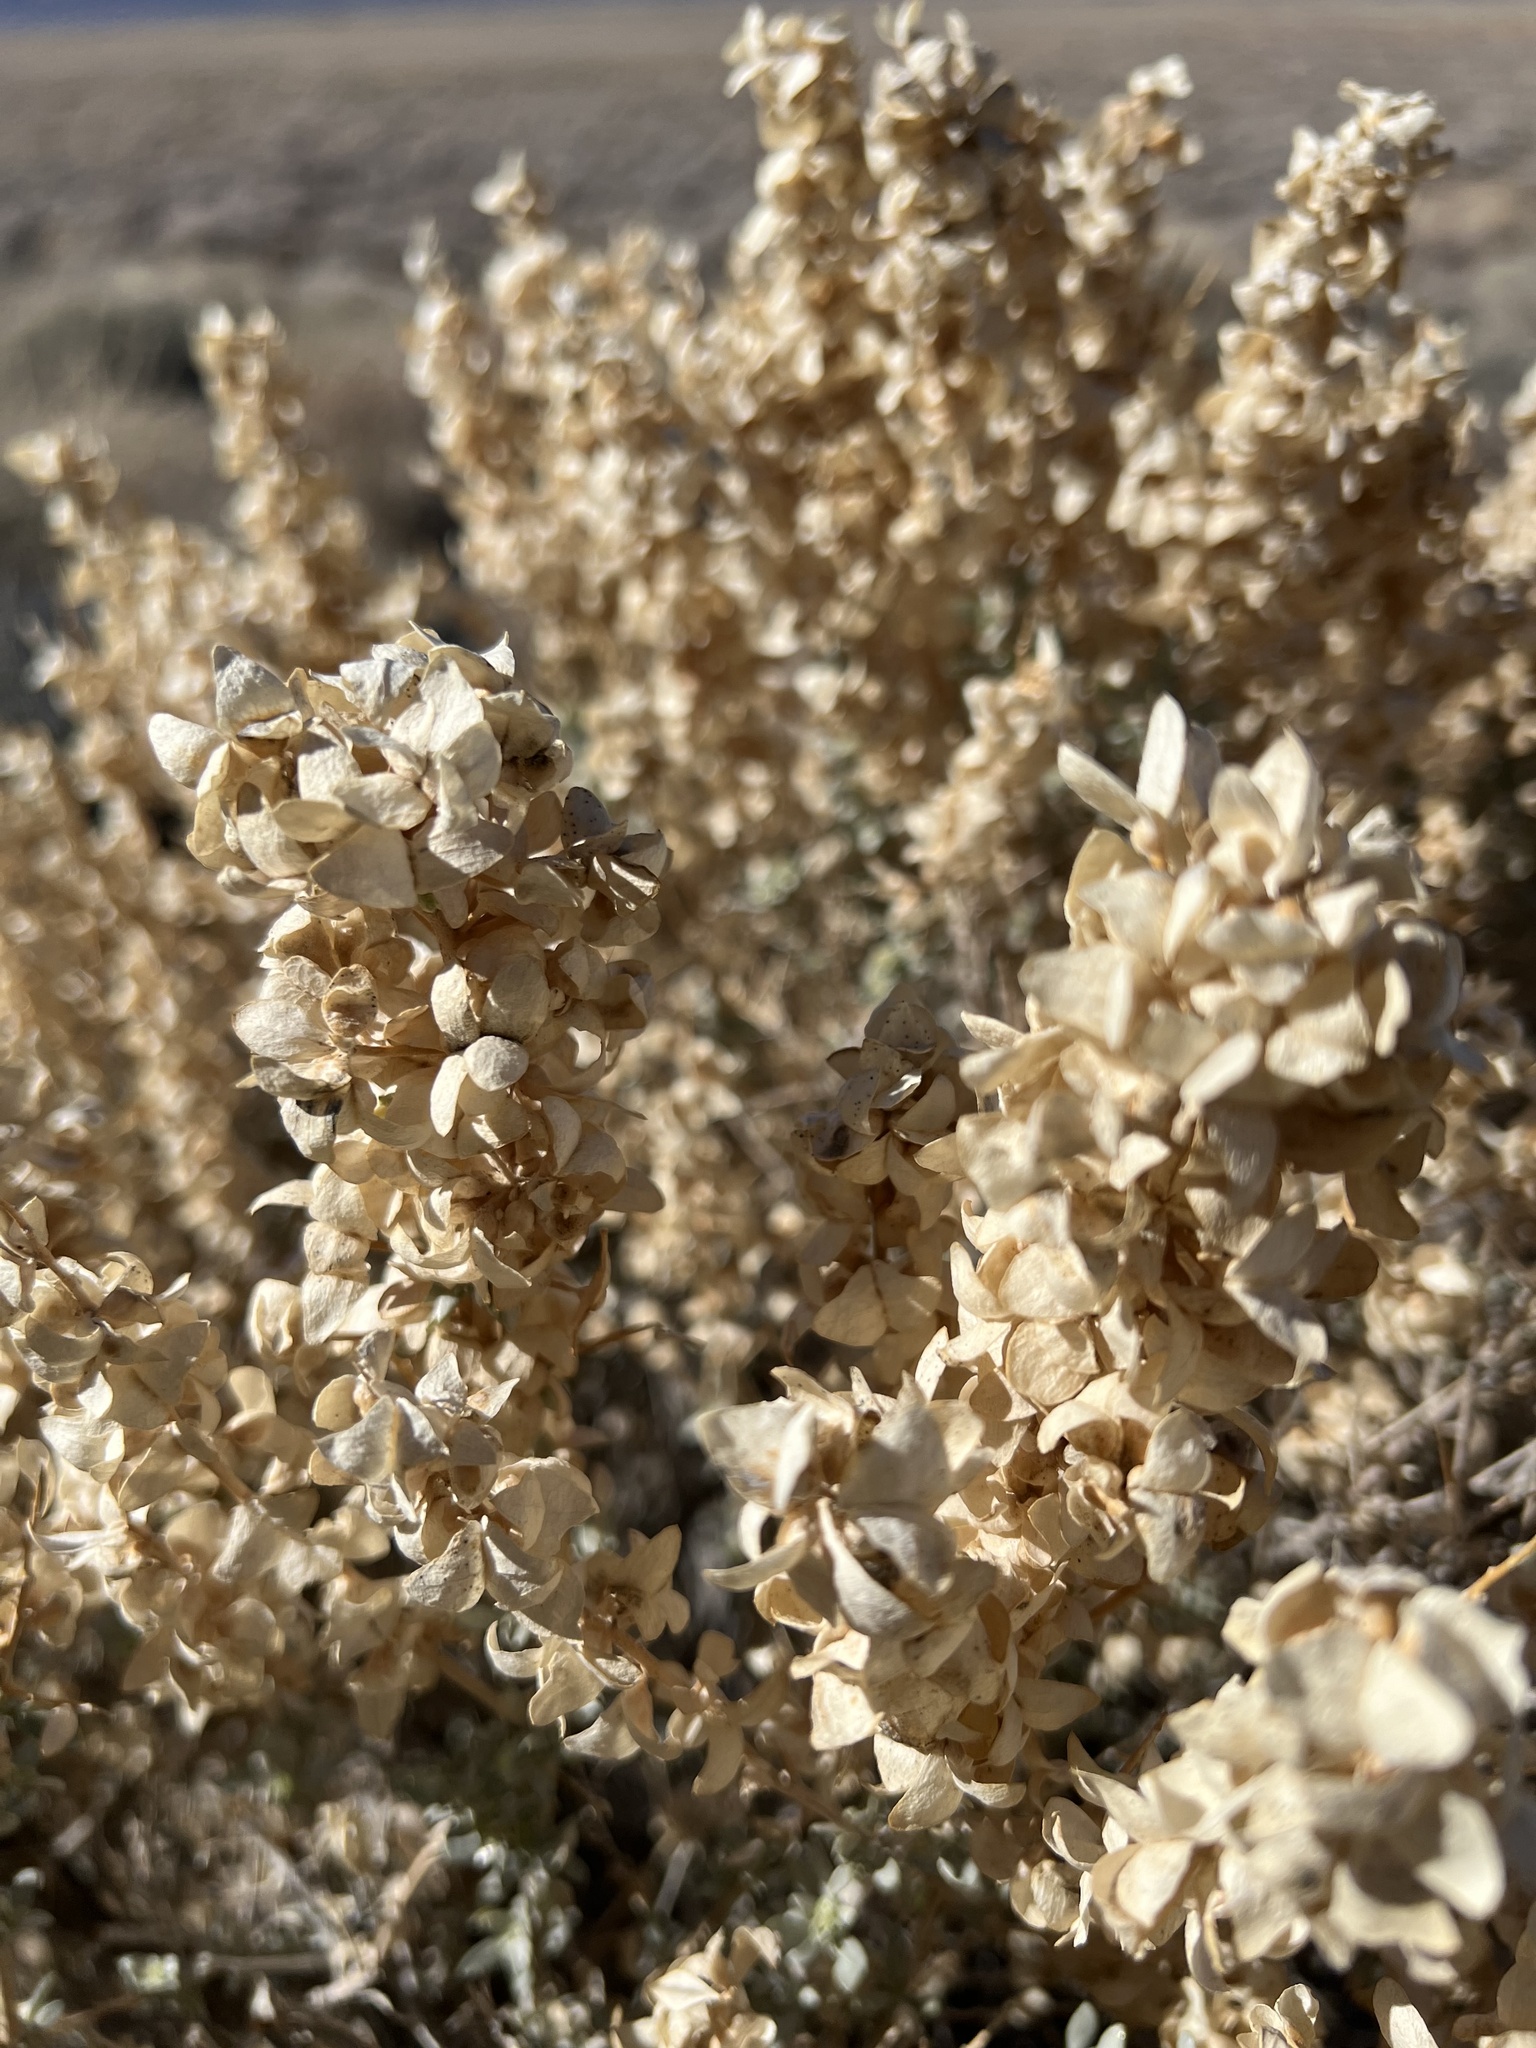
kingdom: Plantae
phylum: Tracheophyta
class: Magnoliopsida
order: Caryophyllales
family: Amaranthaceae
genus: Atriplex
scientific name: Atriplex confertifolia
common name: Shadscale
